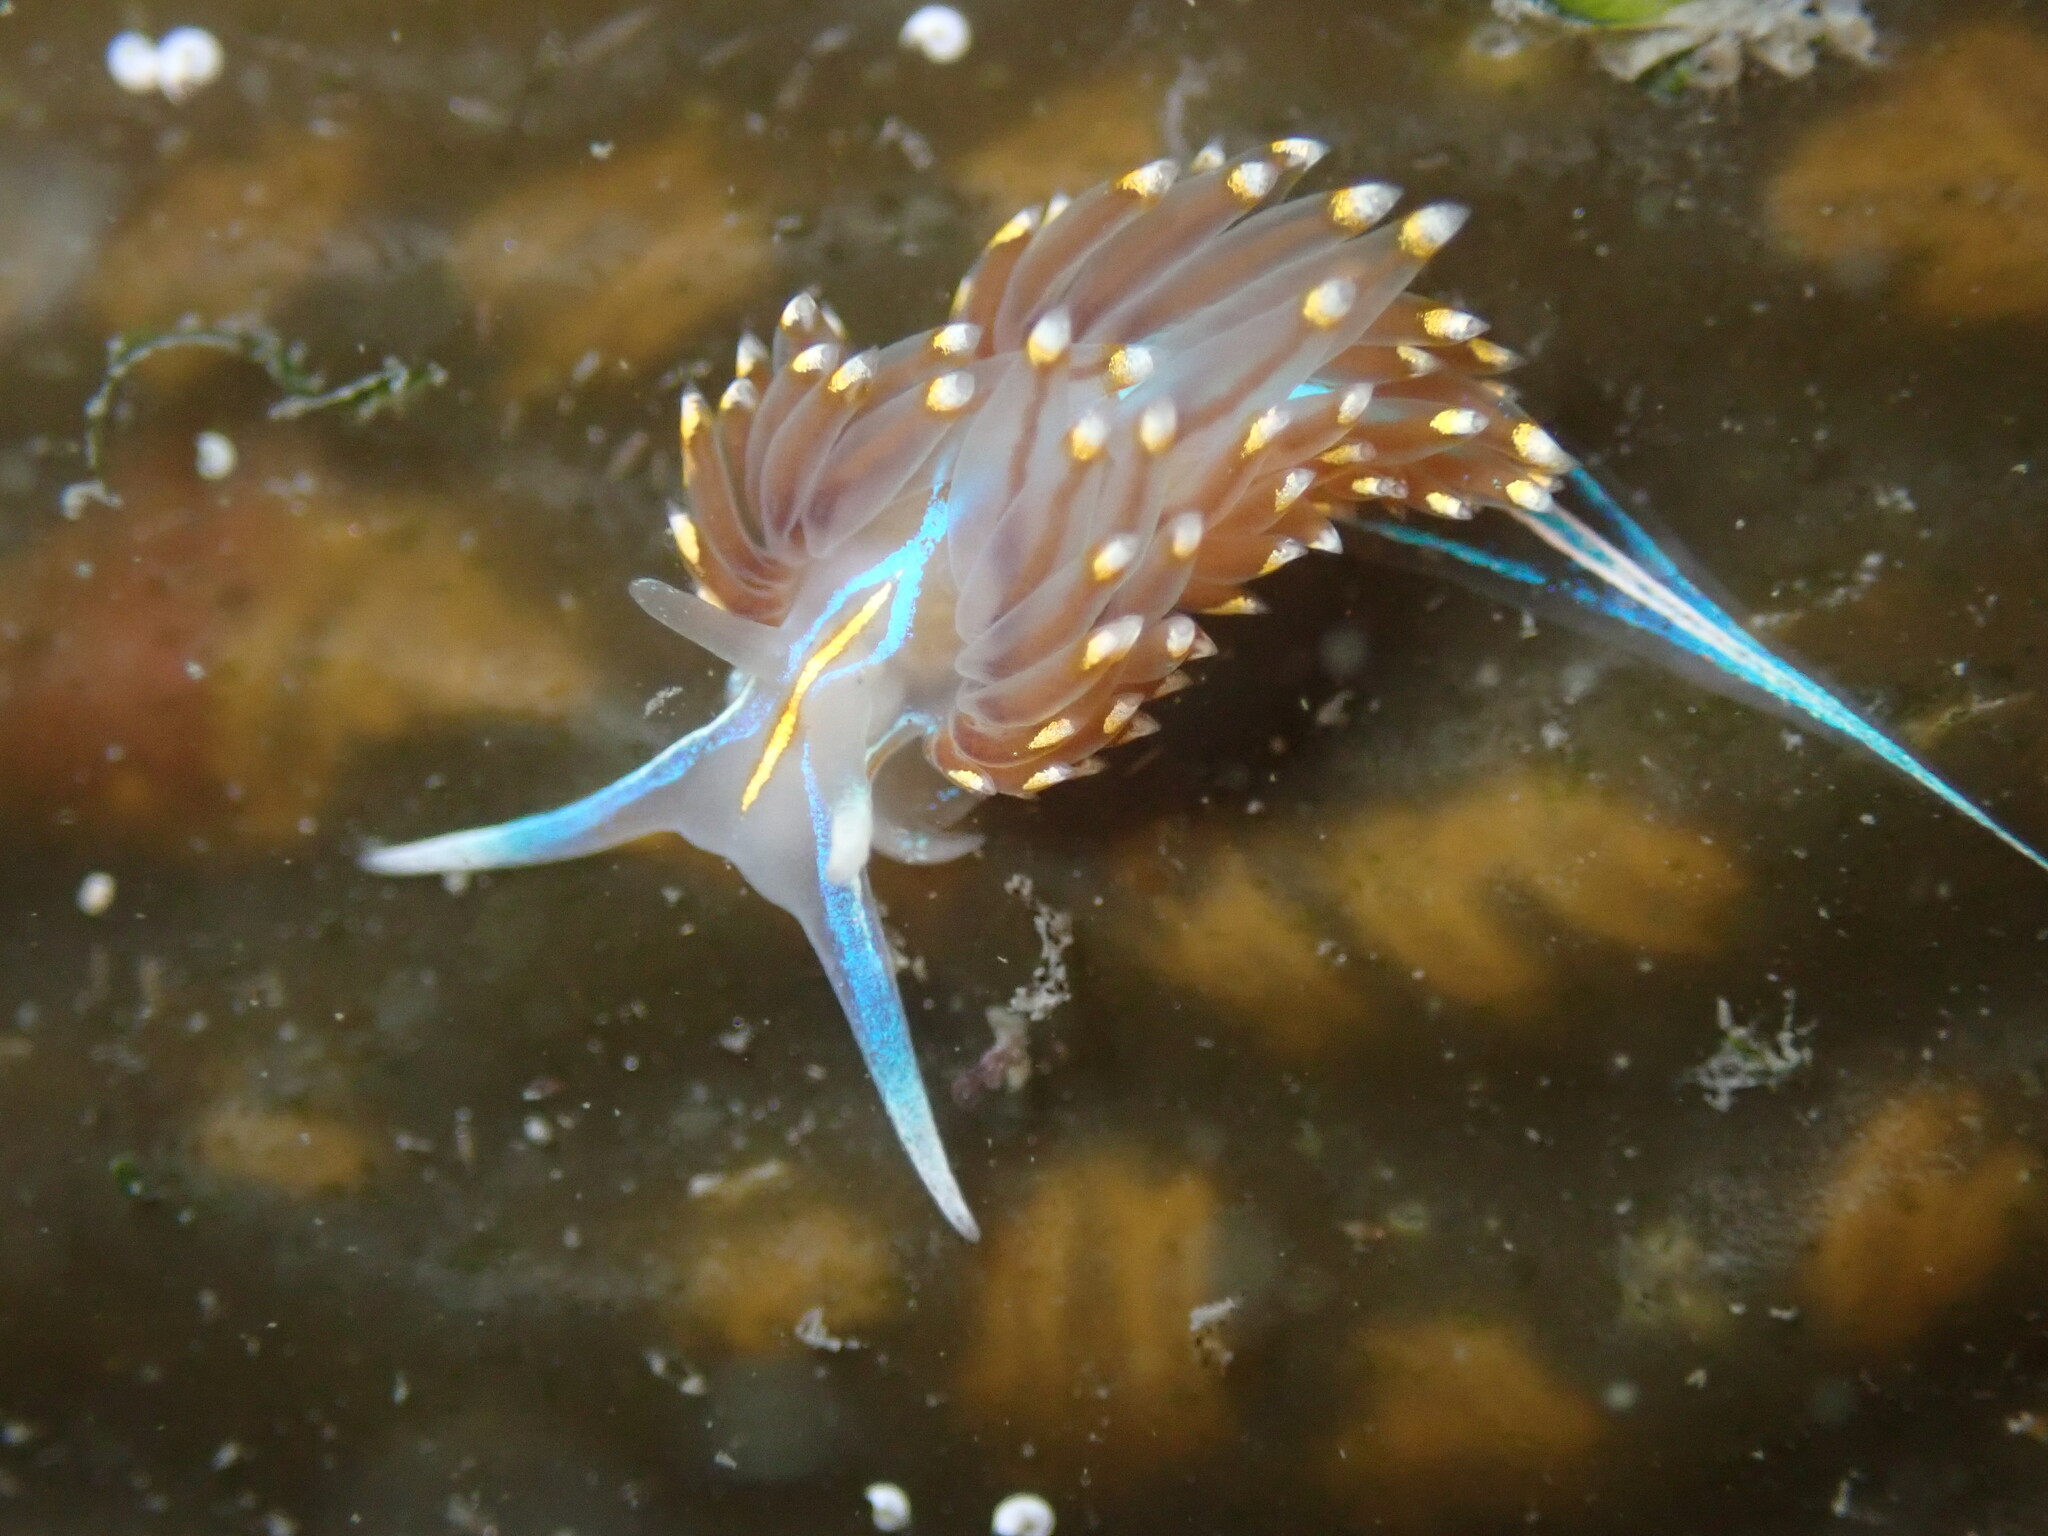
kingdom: Animalia
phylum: Mollusca
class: Gastropoda
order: Nudibranchia
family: Myrrhinidae
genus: Hermissenda
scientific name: Hermissenda opalescens
